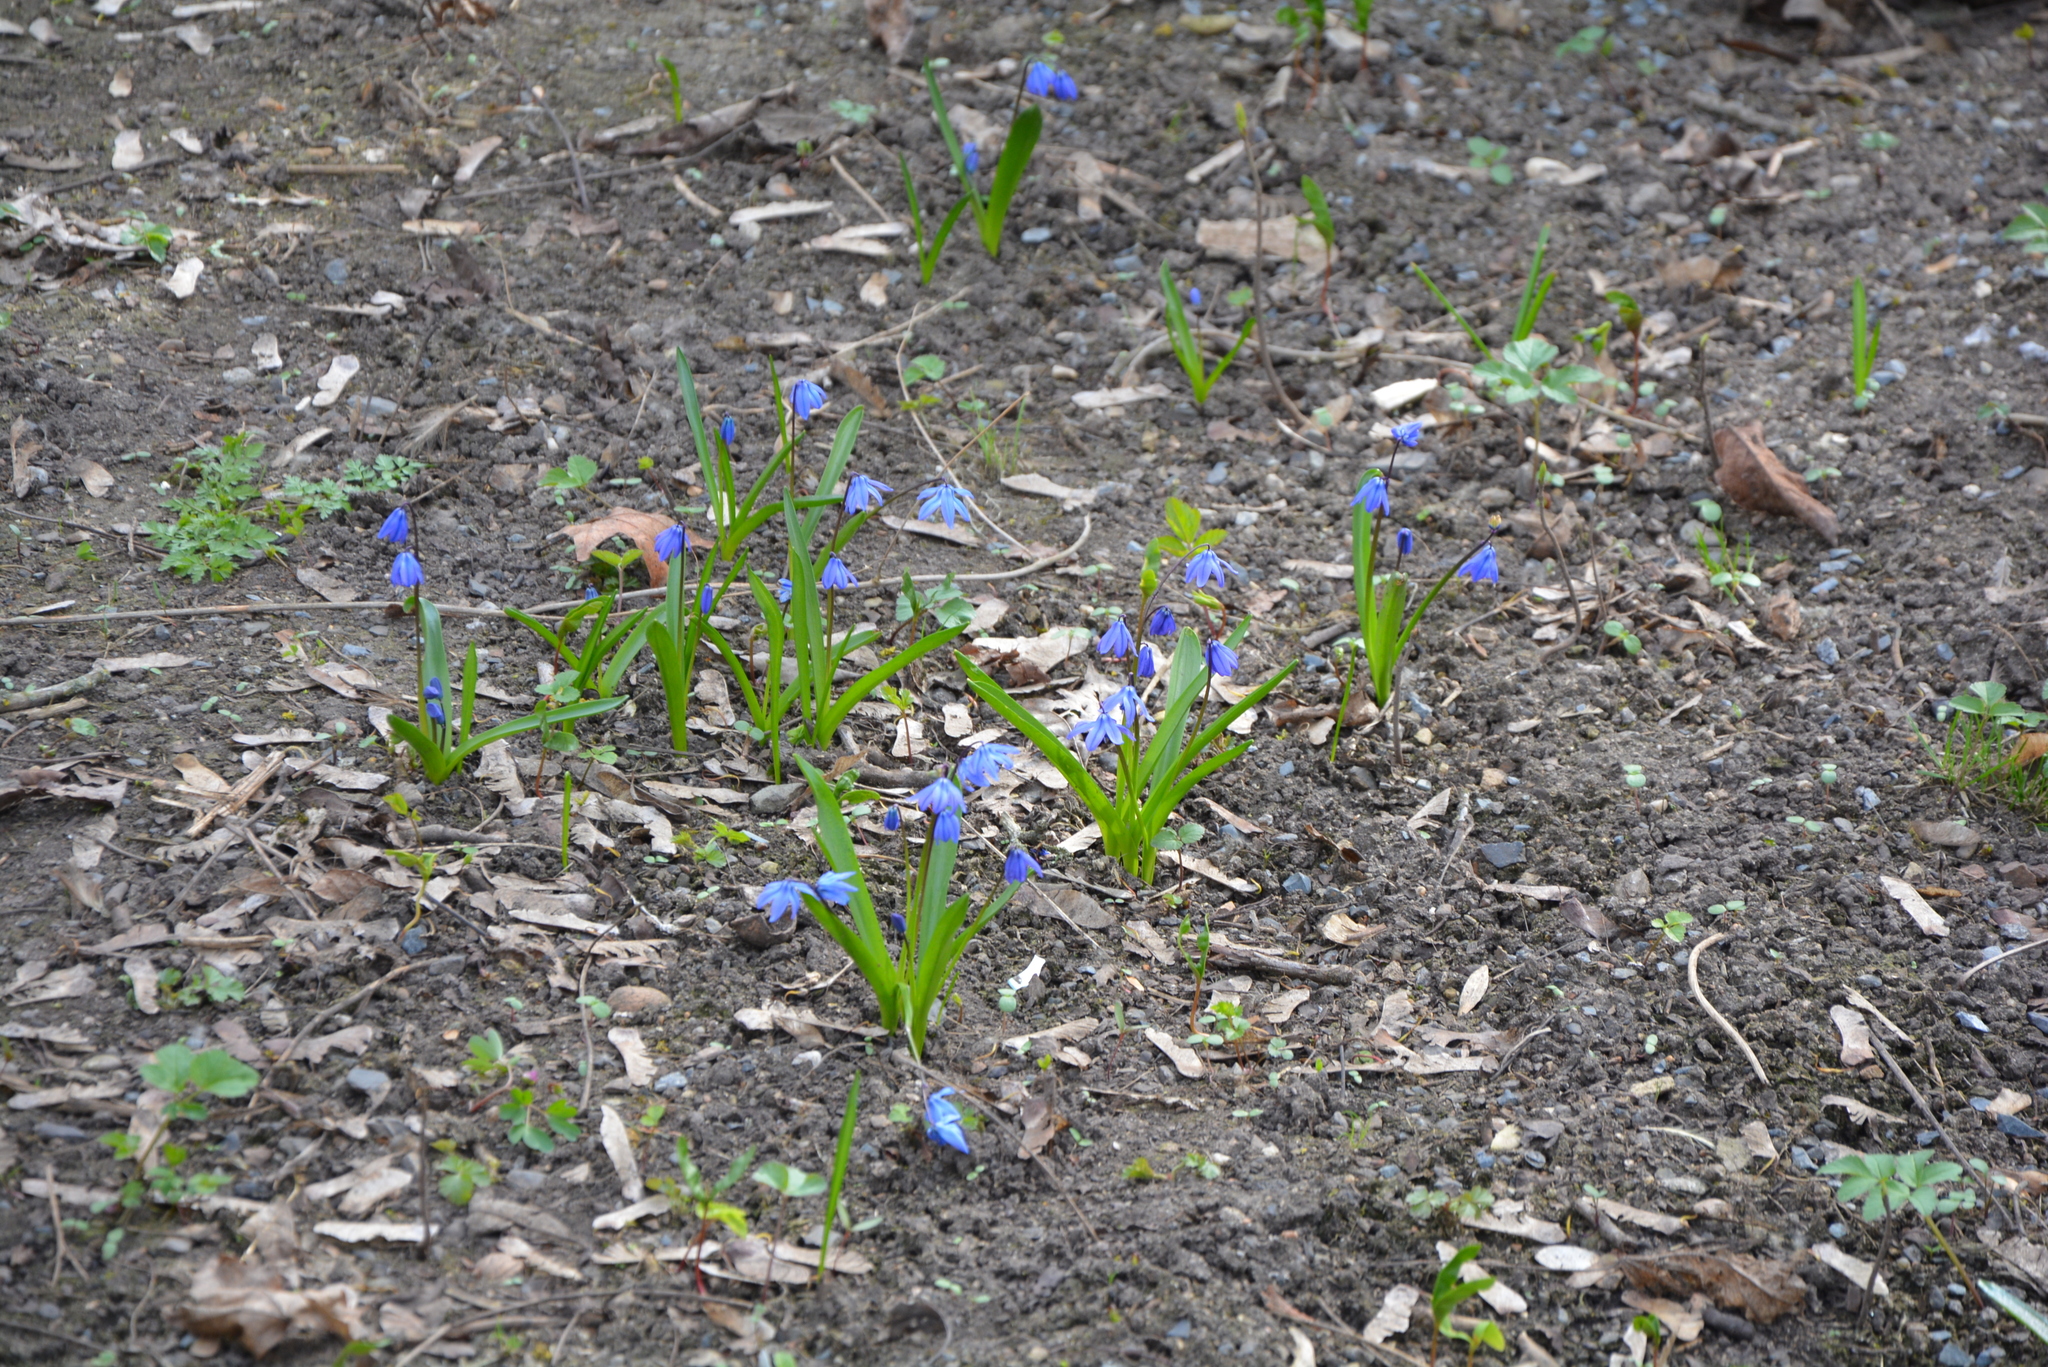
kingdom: Plantae
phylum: Tracheophyta
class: Liliopsida
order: Asparagales
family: Asparagaceae
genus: Scilla
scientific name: Scilla siberica
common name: Siberian squill
